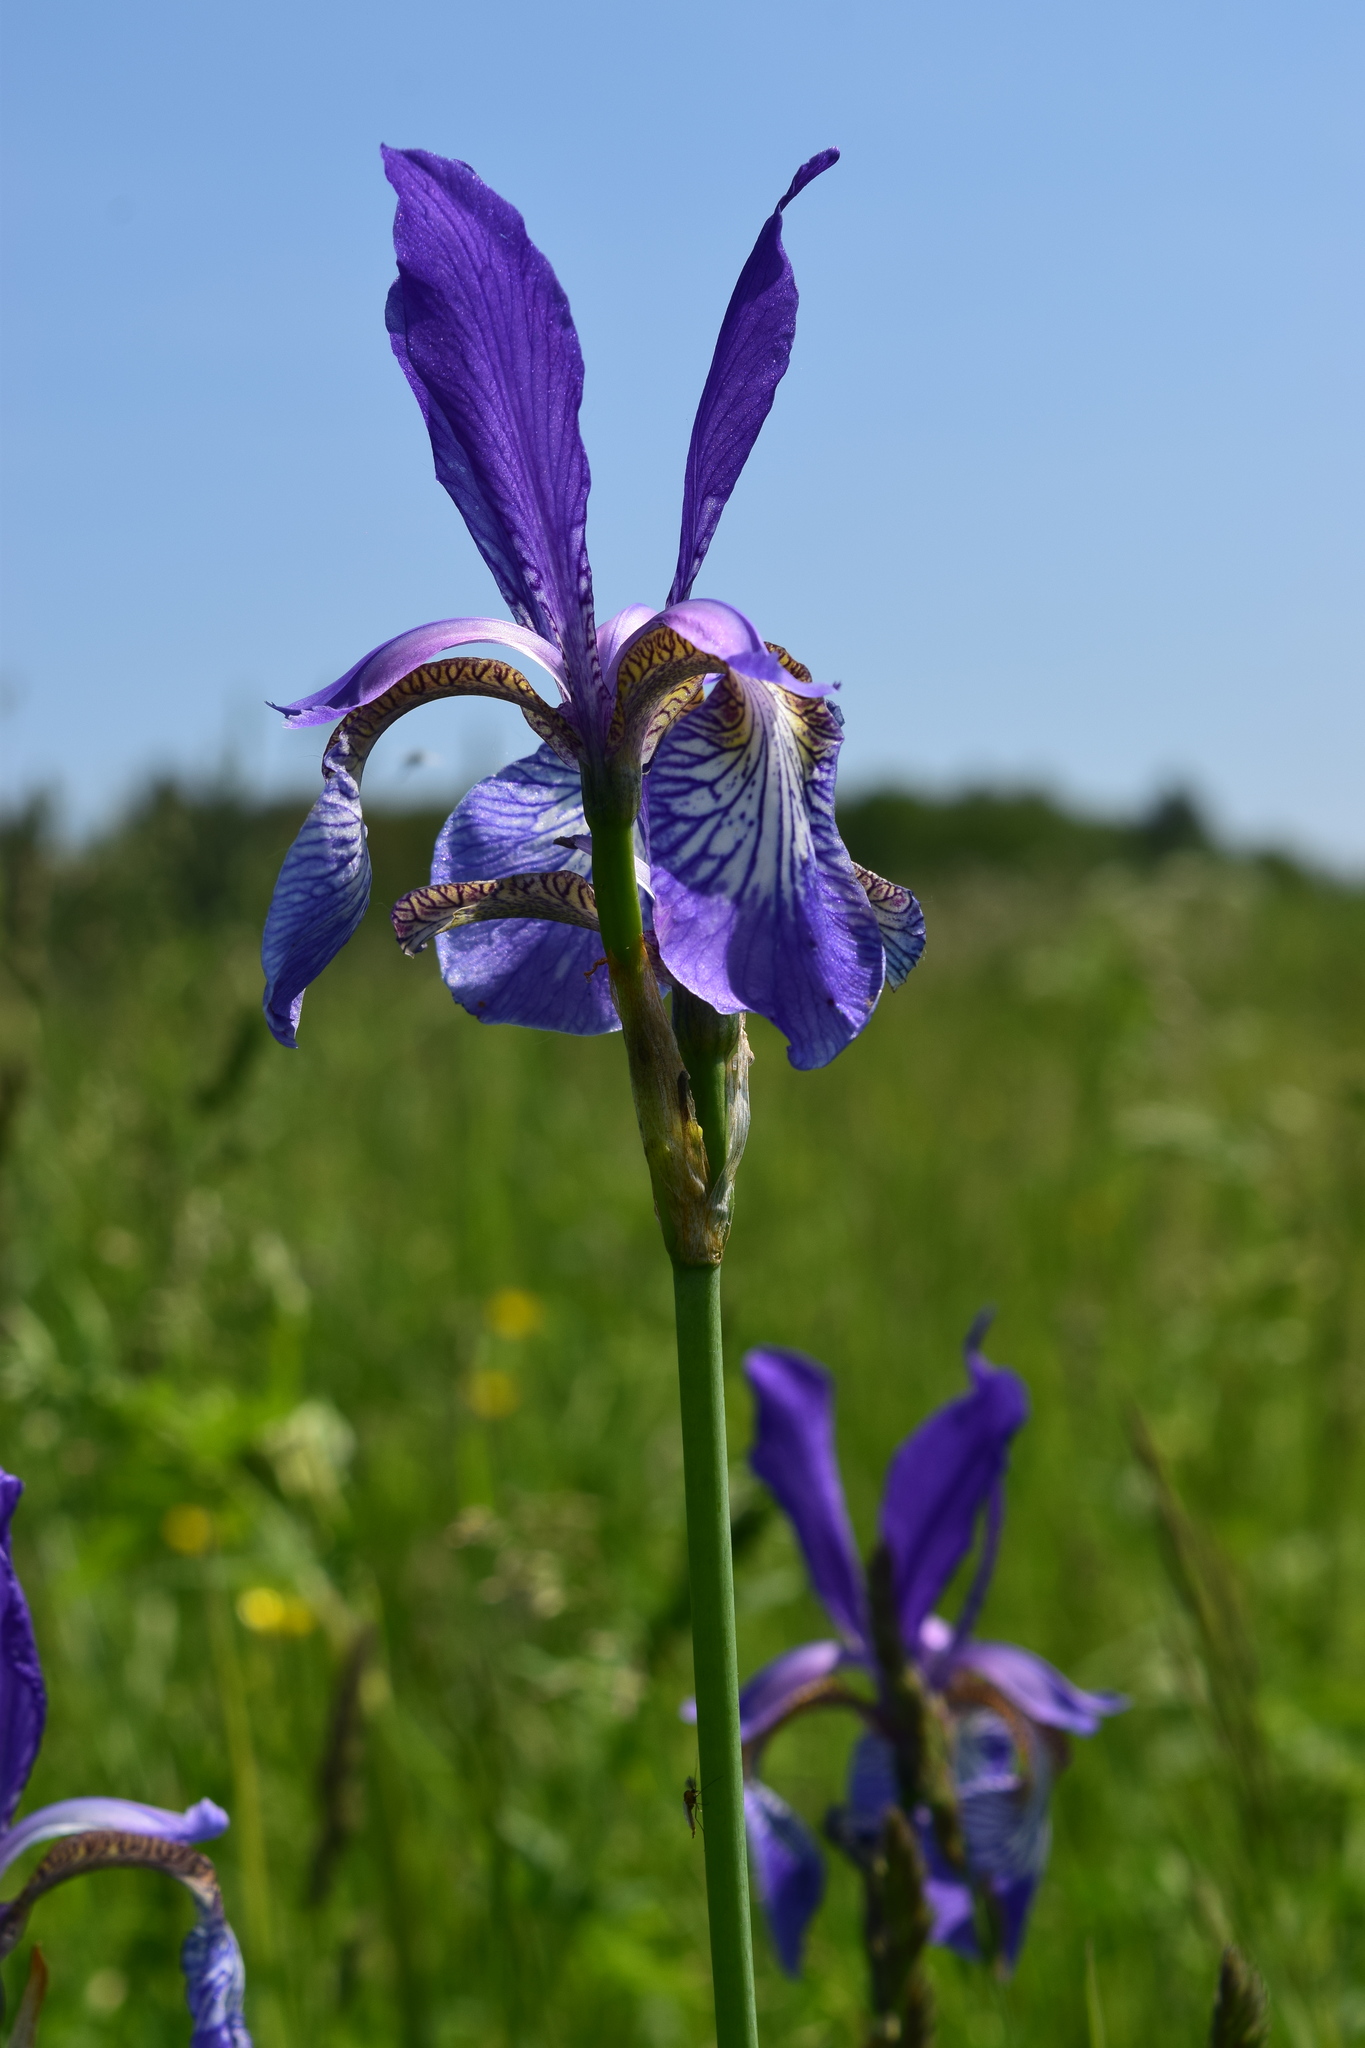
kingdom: Plantae
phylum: Tracheophyta
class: Liliopsida
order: Asparagales
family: Iridaceae
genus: Iris
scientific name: Iris sibirica
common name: Siberian iris
